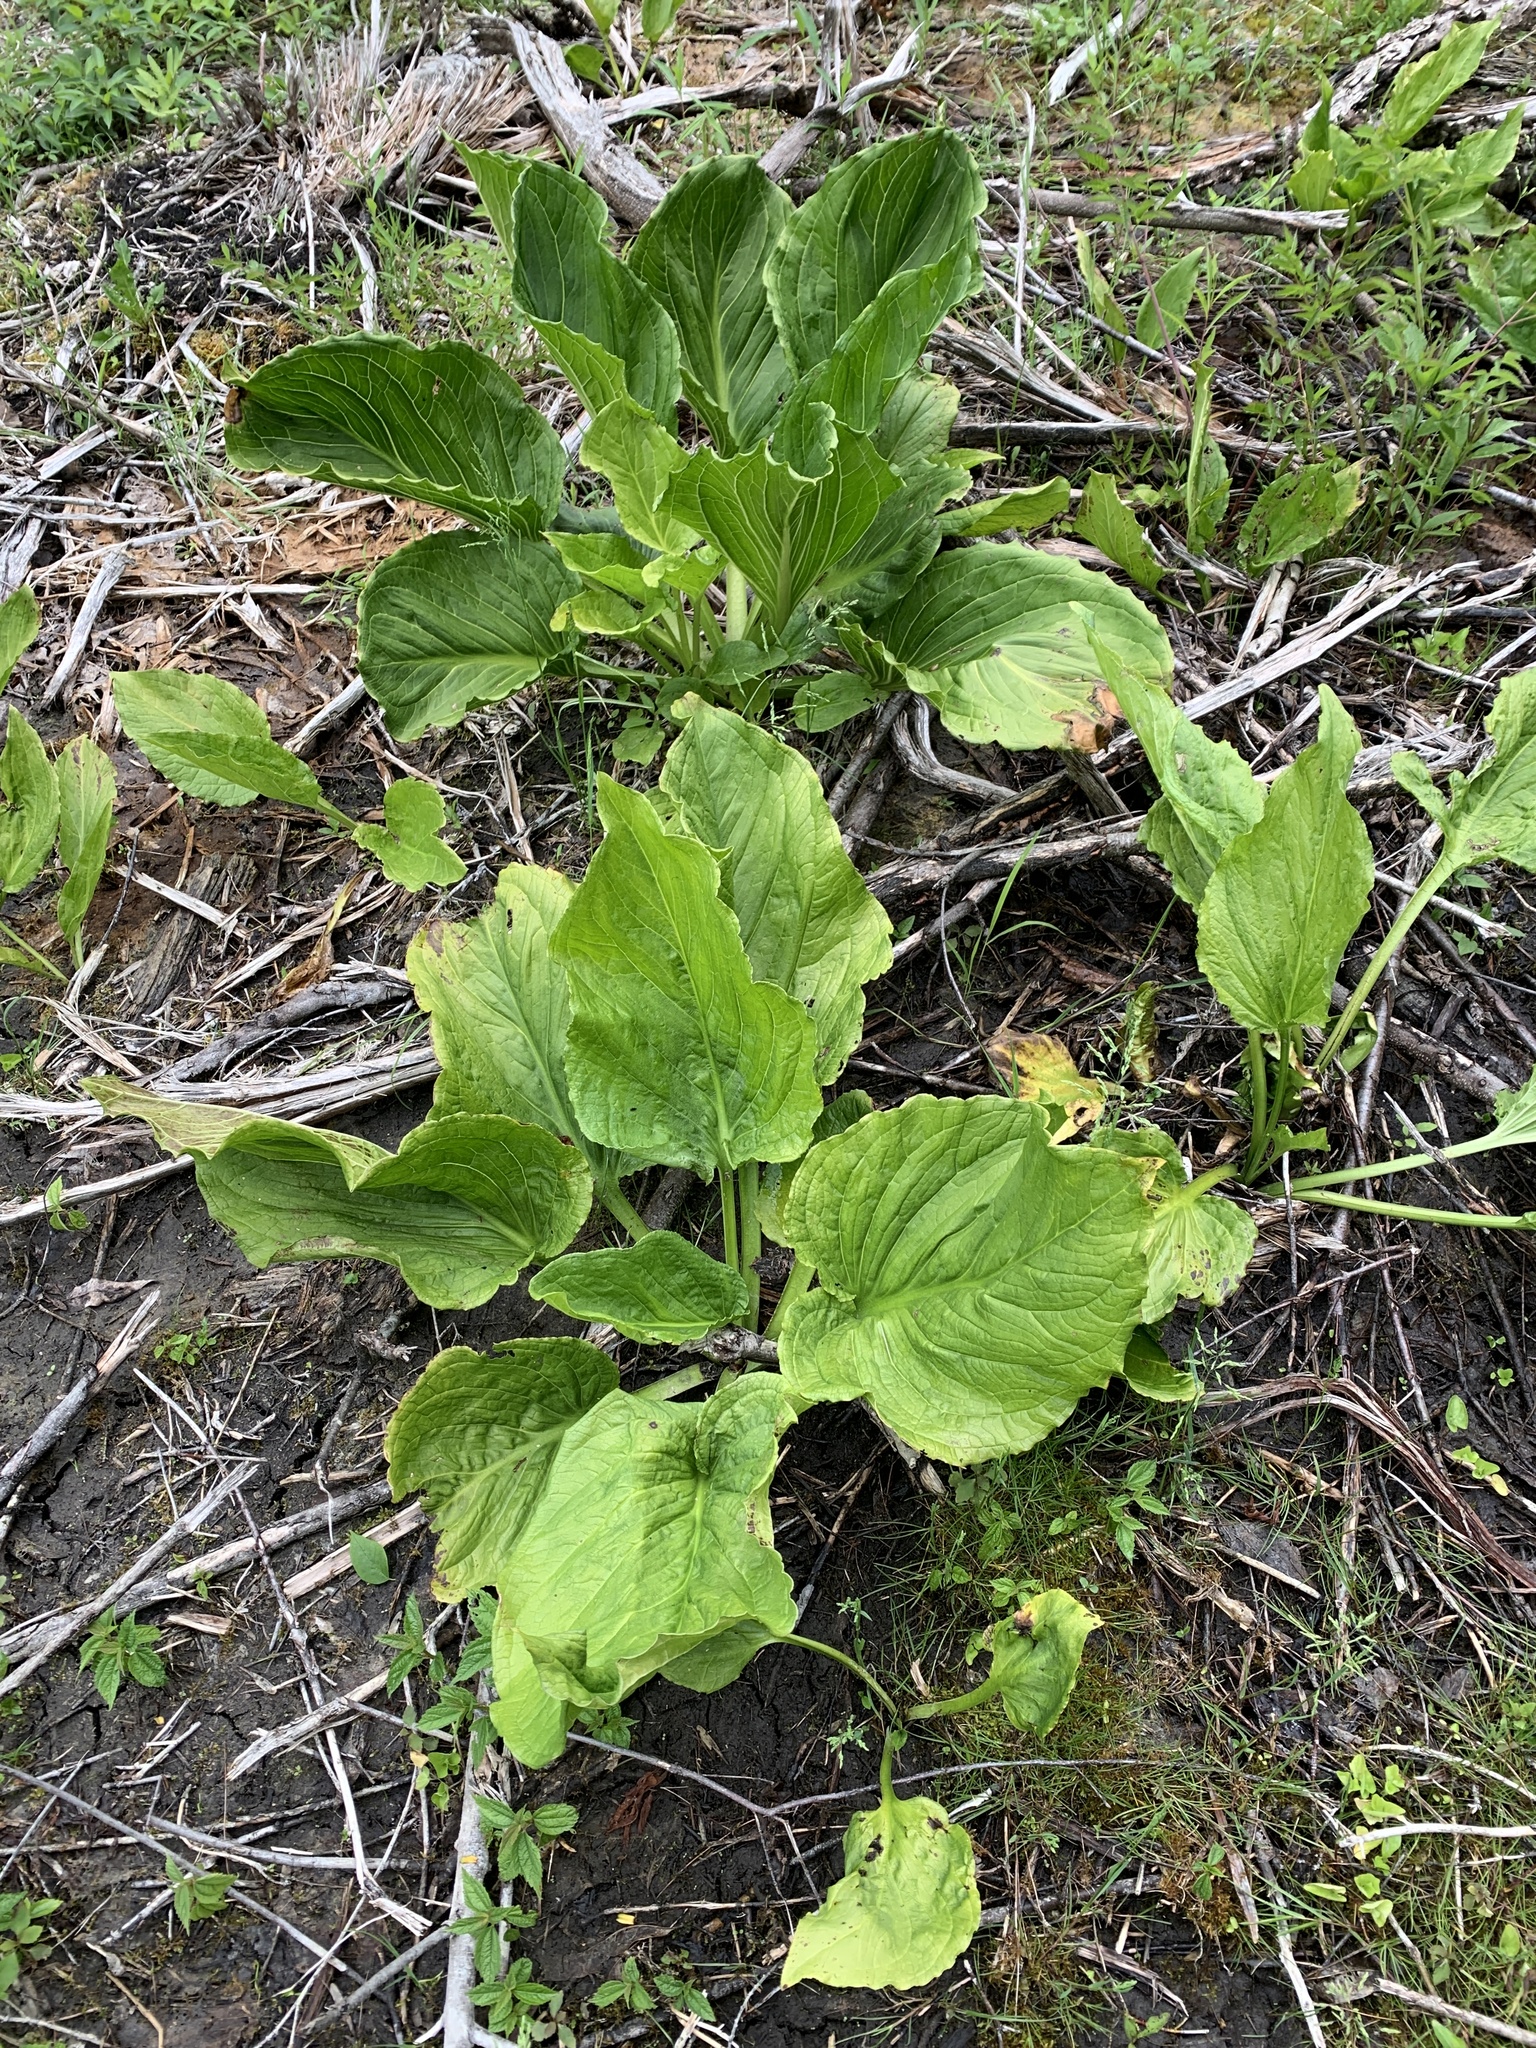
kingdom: Plantae
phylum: Tracheophyta
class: Liliopsida
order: Alismatales
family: Araceae
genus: Symplocarpus
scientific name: Symplocarpus foetidus
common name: Eastern skunk cabbage
